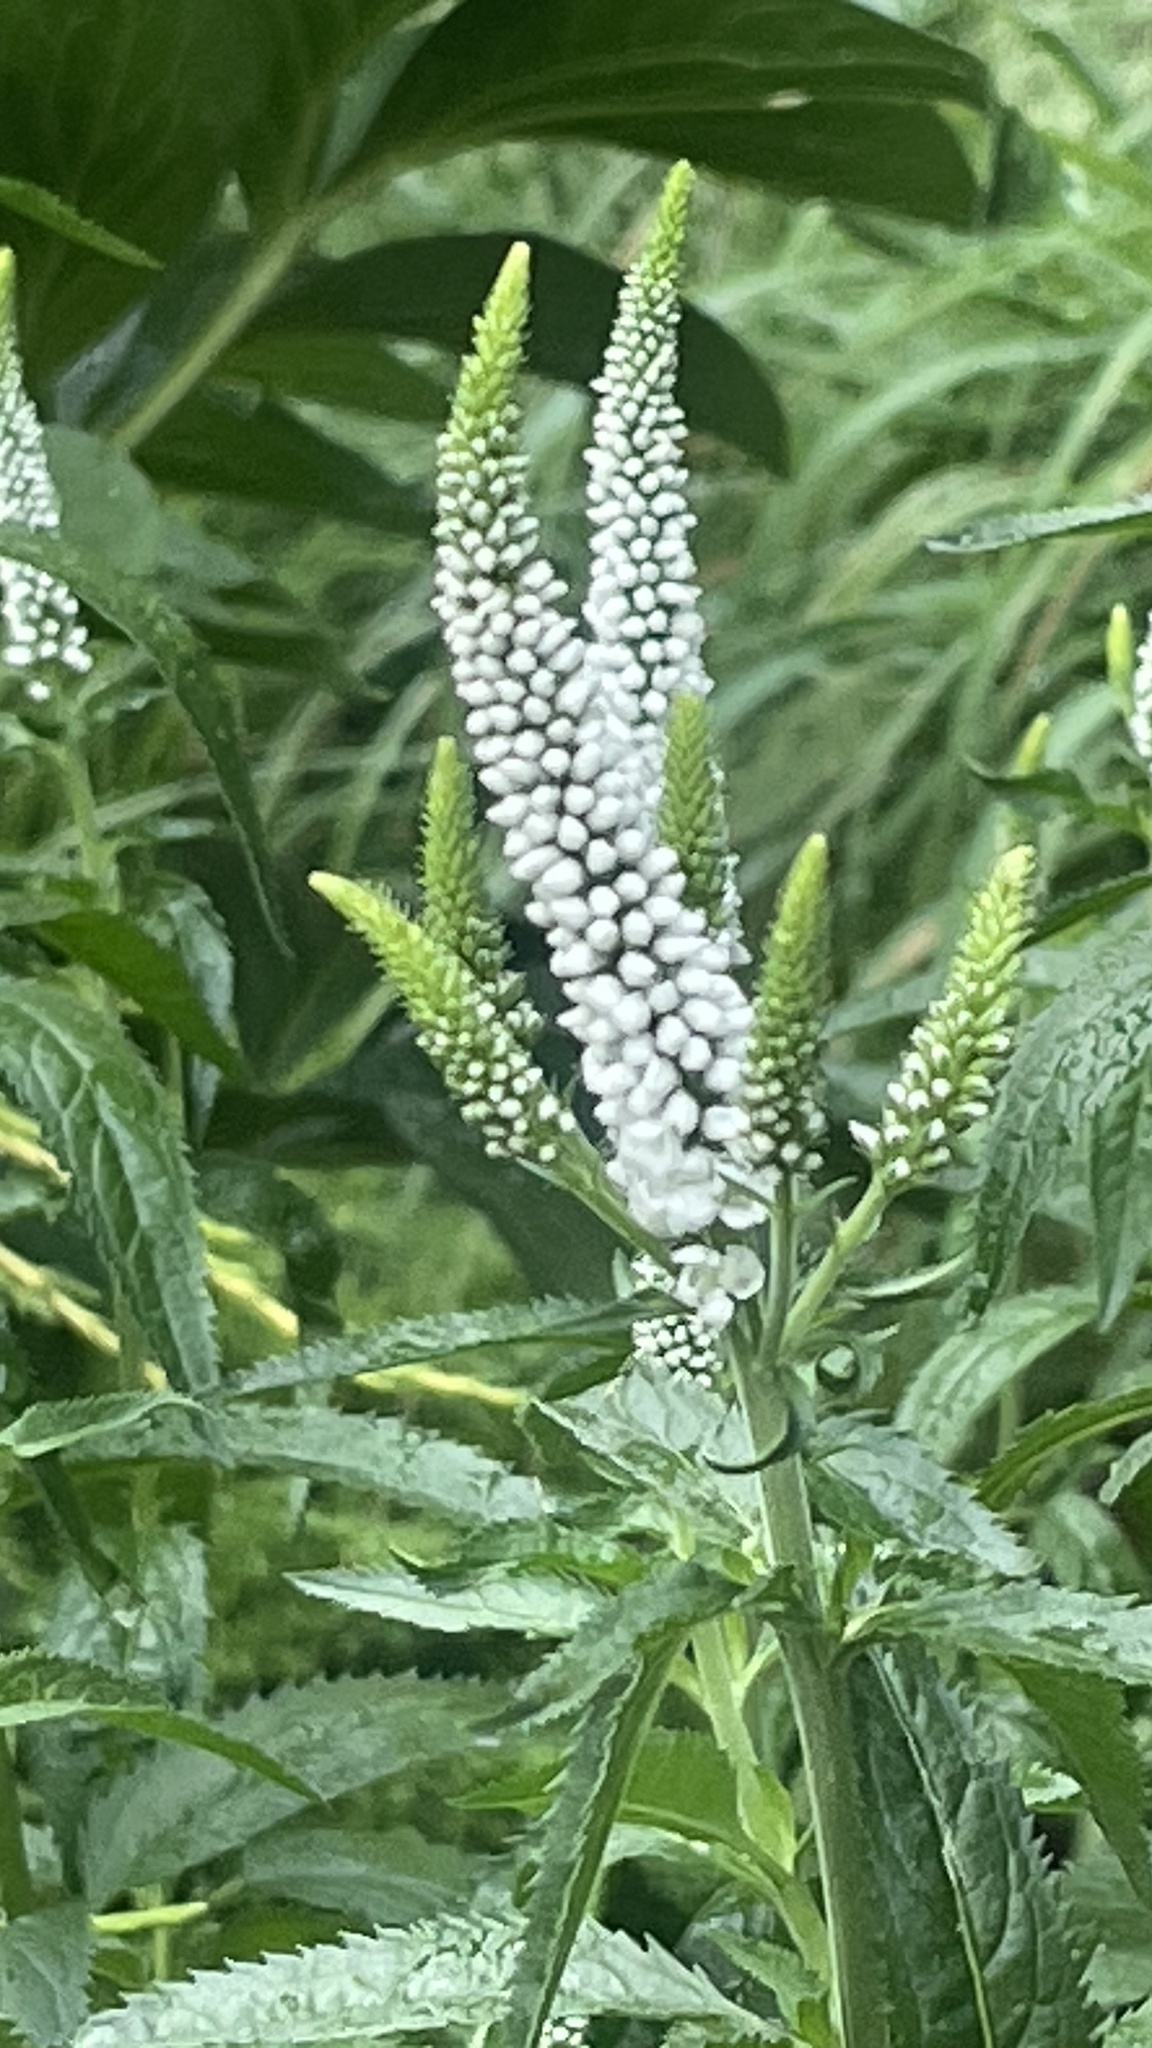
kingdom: Plantae
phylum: Tracheophyta
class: Magnoliopsida
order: Ericales
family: Primulaceae
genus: Lysimachia
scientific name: Lysimachia clethroides
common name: Gooseneck loosestrife
